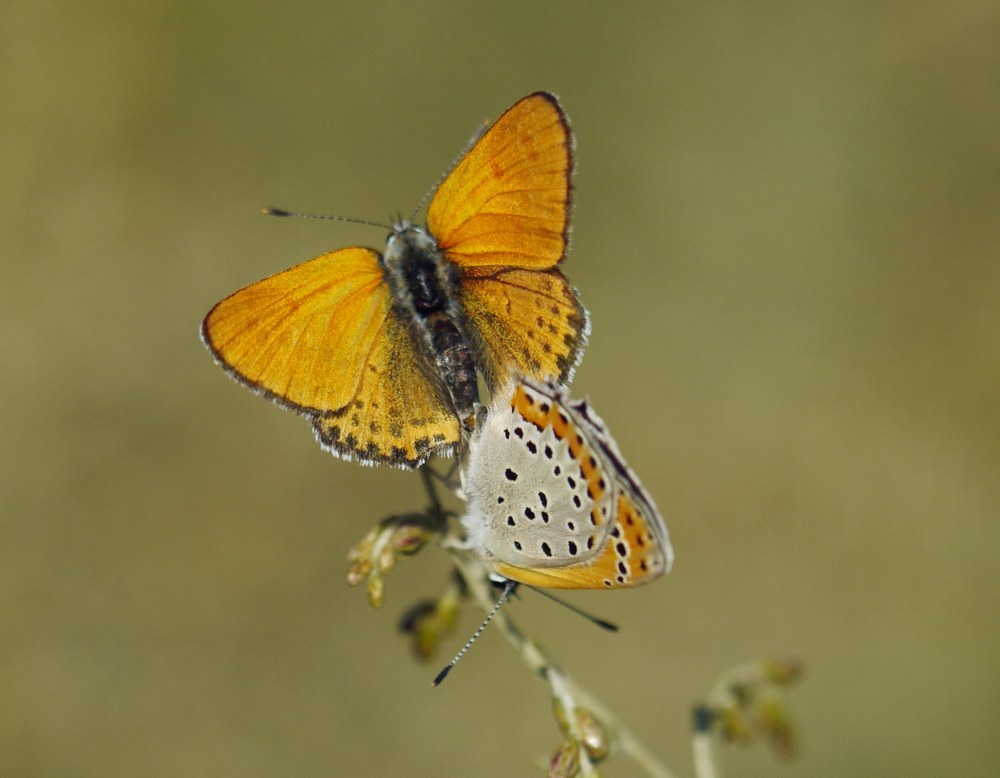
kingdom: Animalia
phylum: Arthropoda
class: Insecta
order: Lepidoptera
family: Lycaenidae
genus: Thersamonia
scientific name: Thersamonia thersamon
